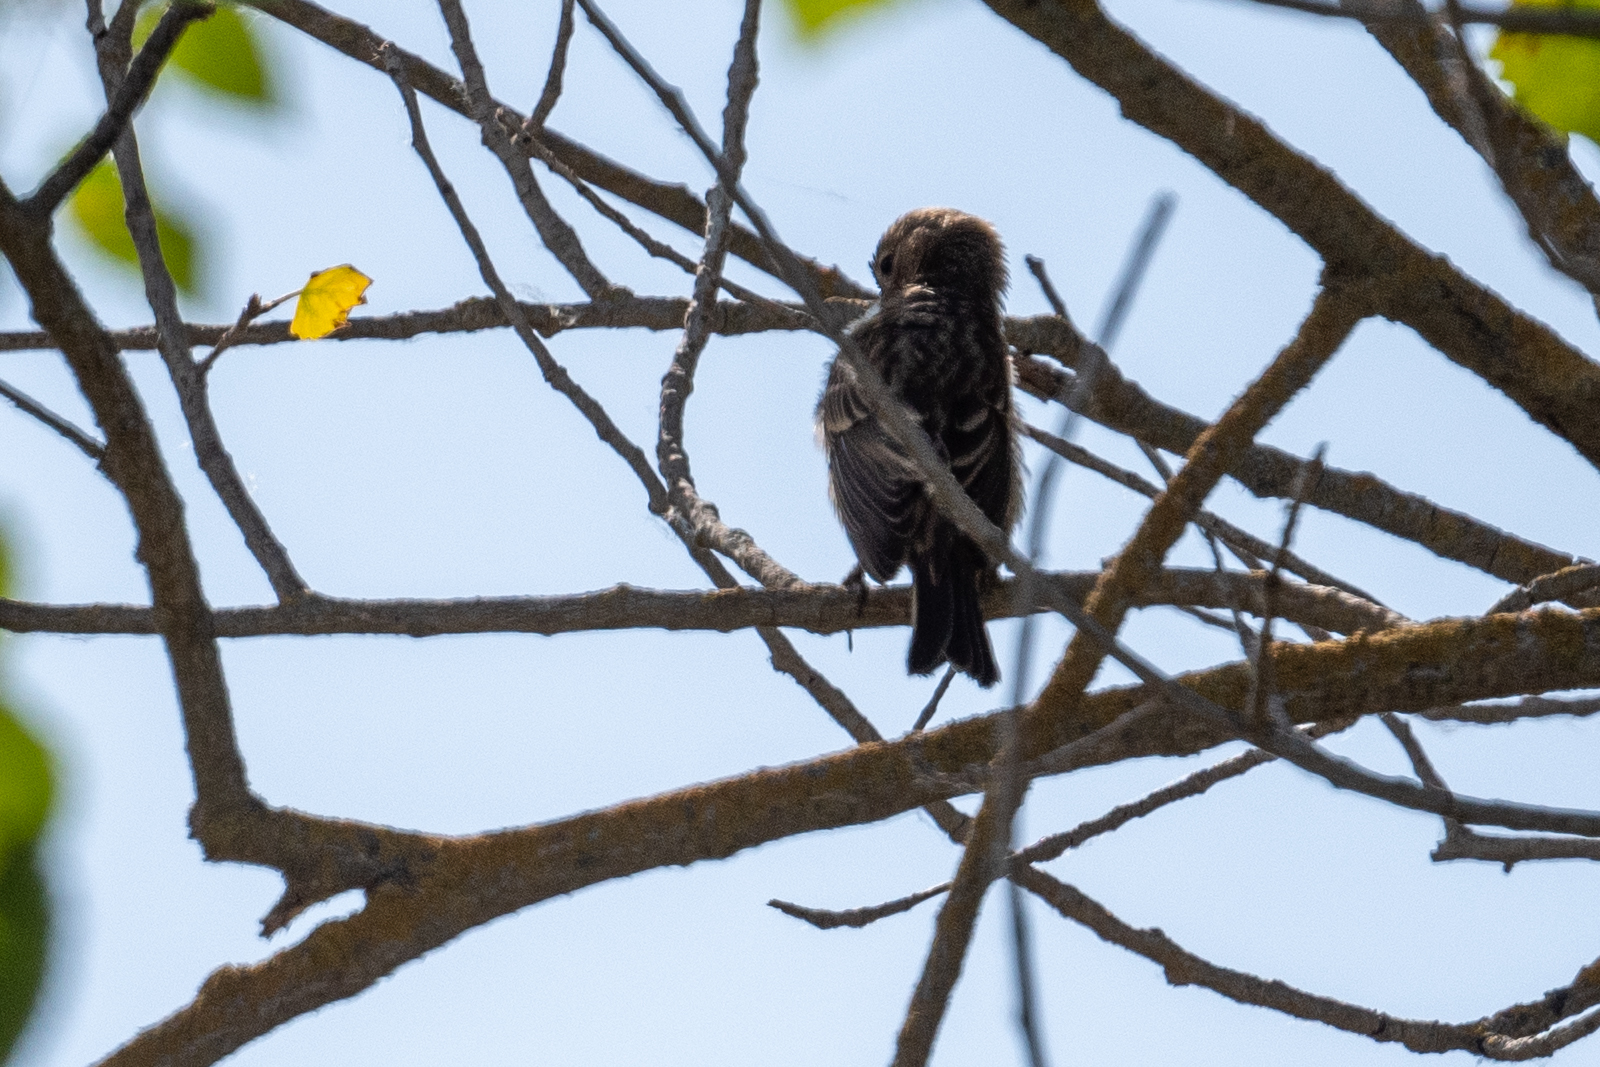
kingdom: Animalia
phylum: Chordata
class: Aves
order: Passeriformes
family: Fringillidae
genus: Haemorhous
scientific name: Haemorhous mexicanus
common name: House finch
